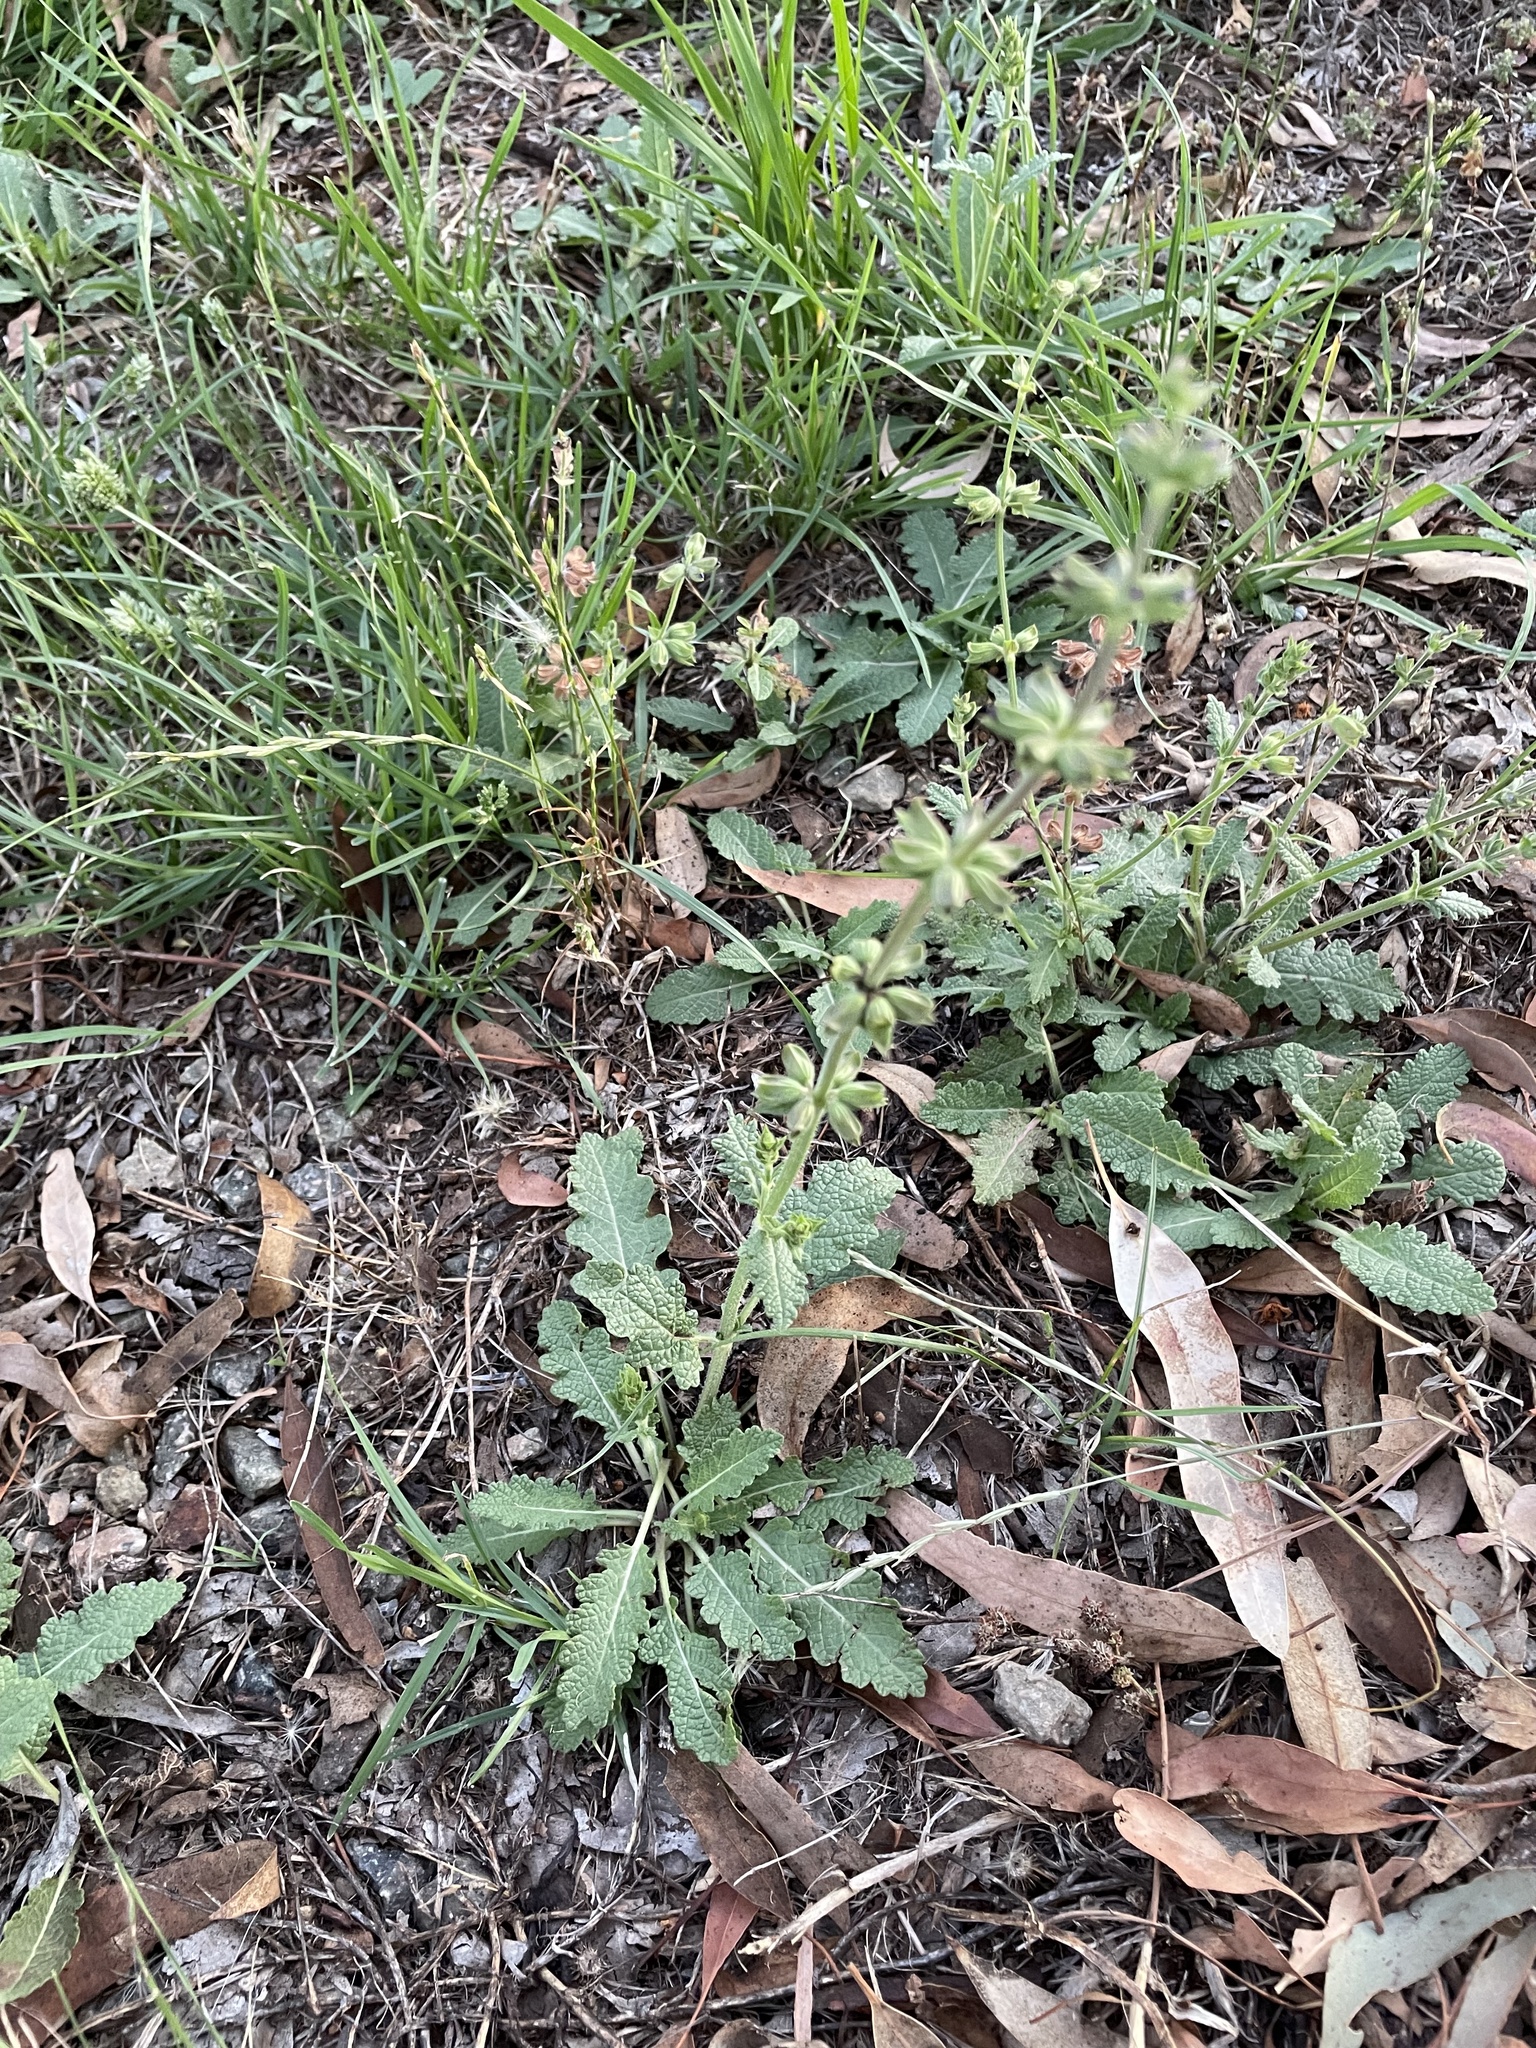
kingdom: Plantae
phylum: Tracheophyta
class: Magnoliopsida
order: Lamiales
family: Lamiaceae
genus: Salvia
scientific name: Salvia verbenaca
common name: Wild clary
